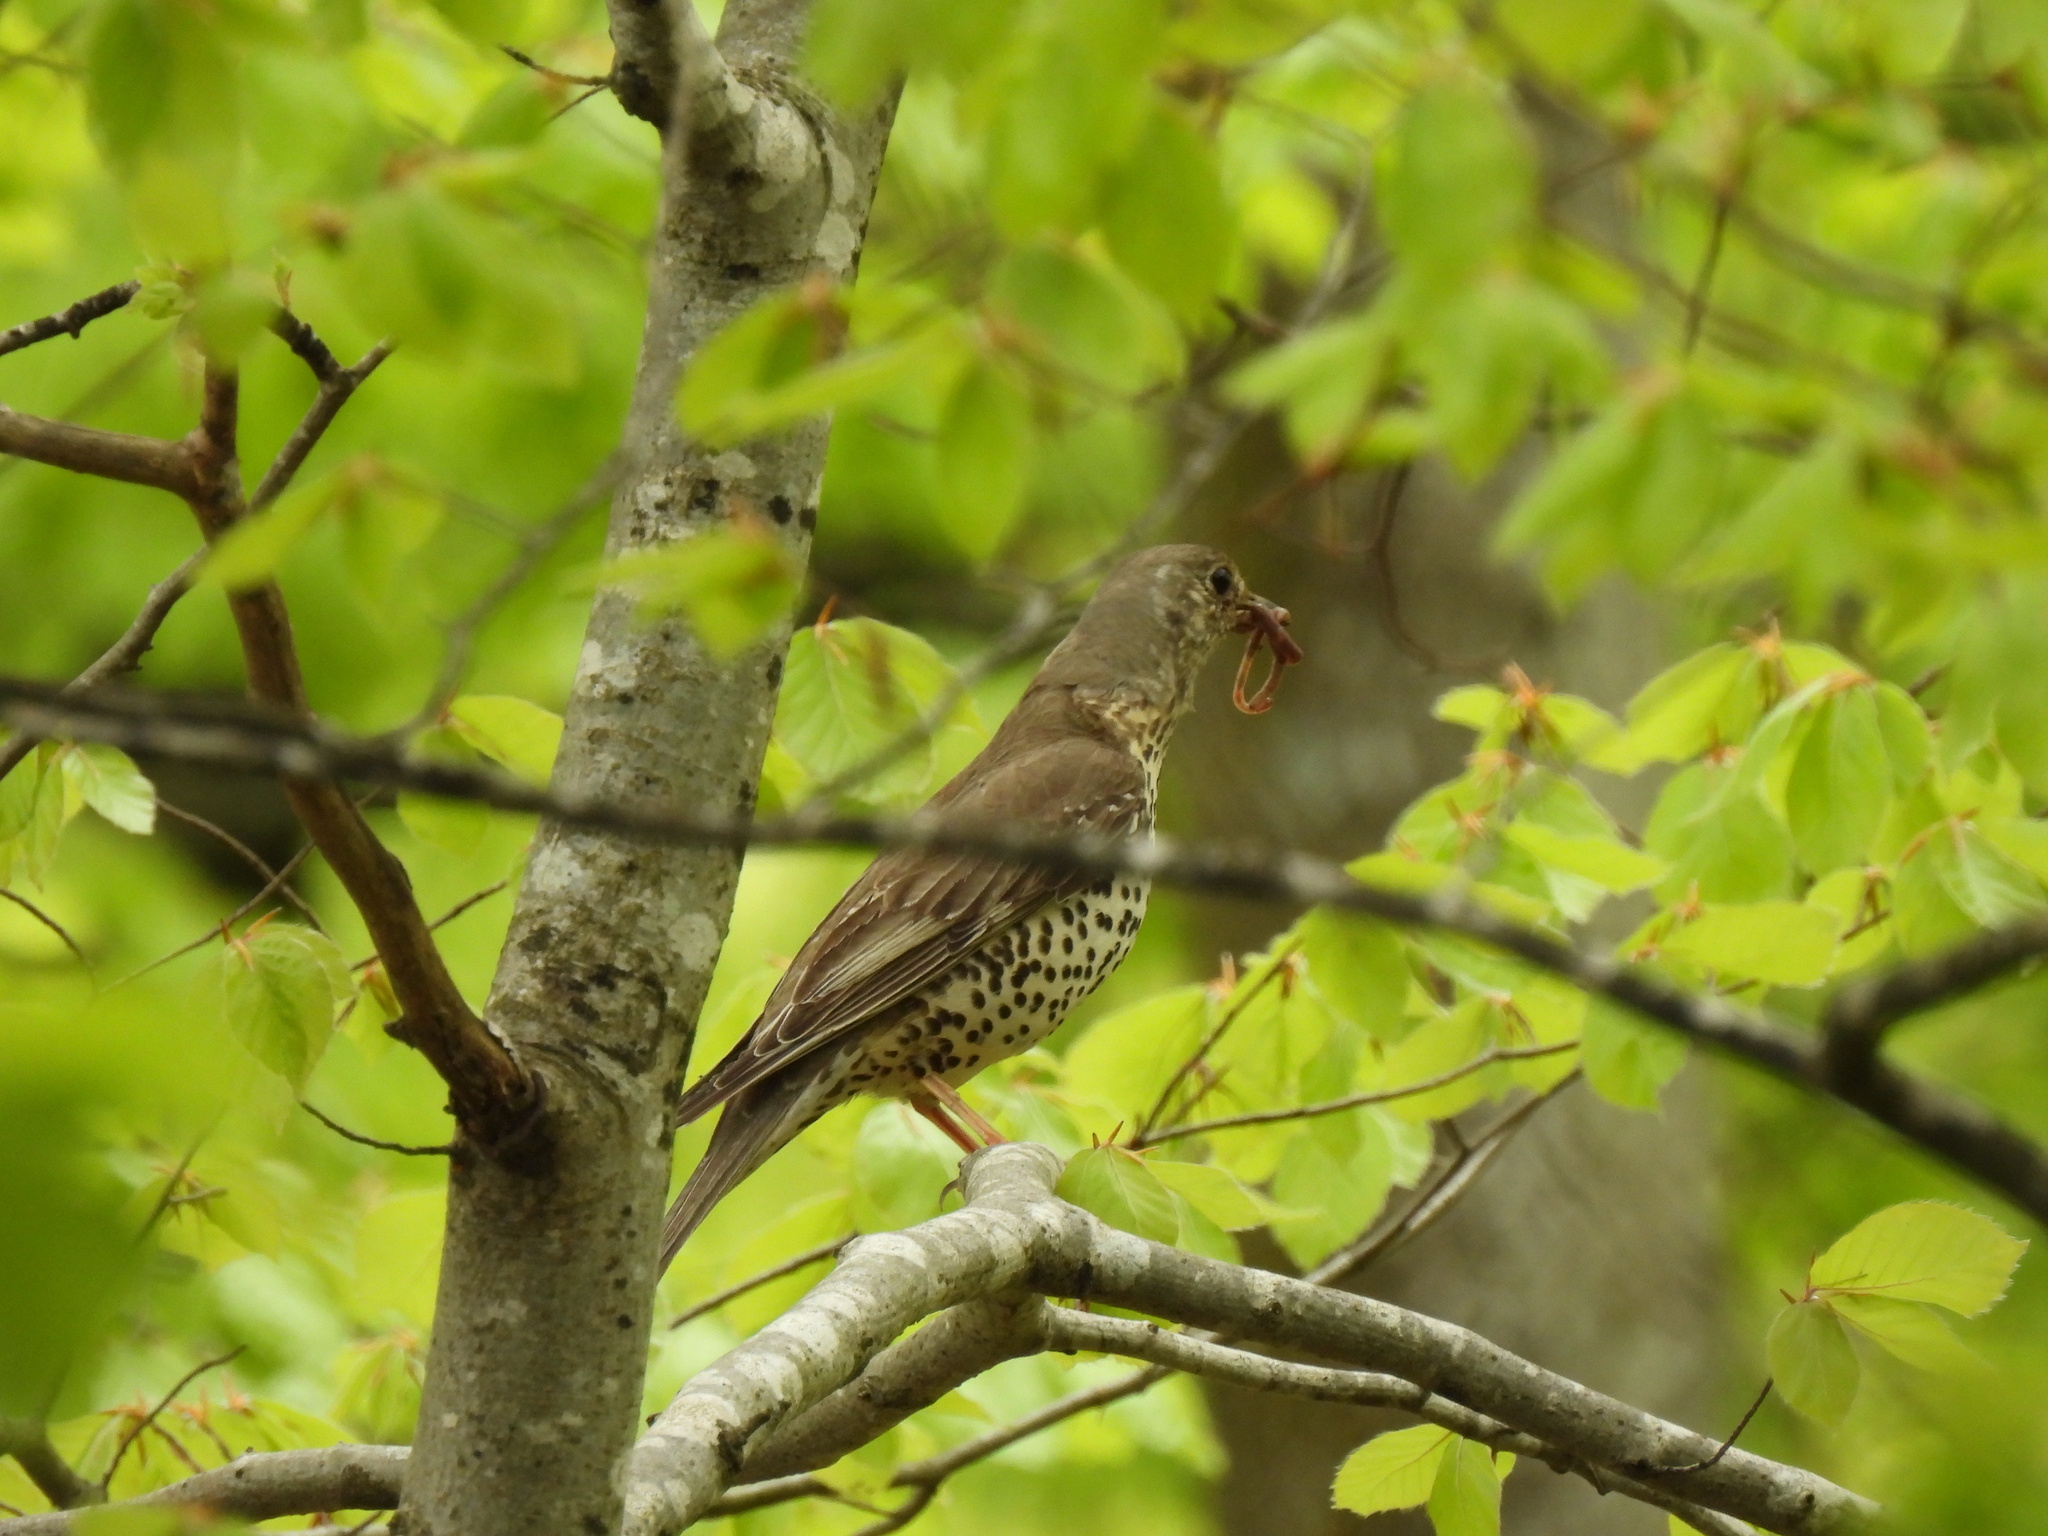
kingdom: Animalia
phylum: Chordata
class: Aves
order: Passeriformes
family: Turdidae
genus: Turdus
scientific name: Turdus viscivorus
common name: Mistle thrush
